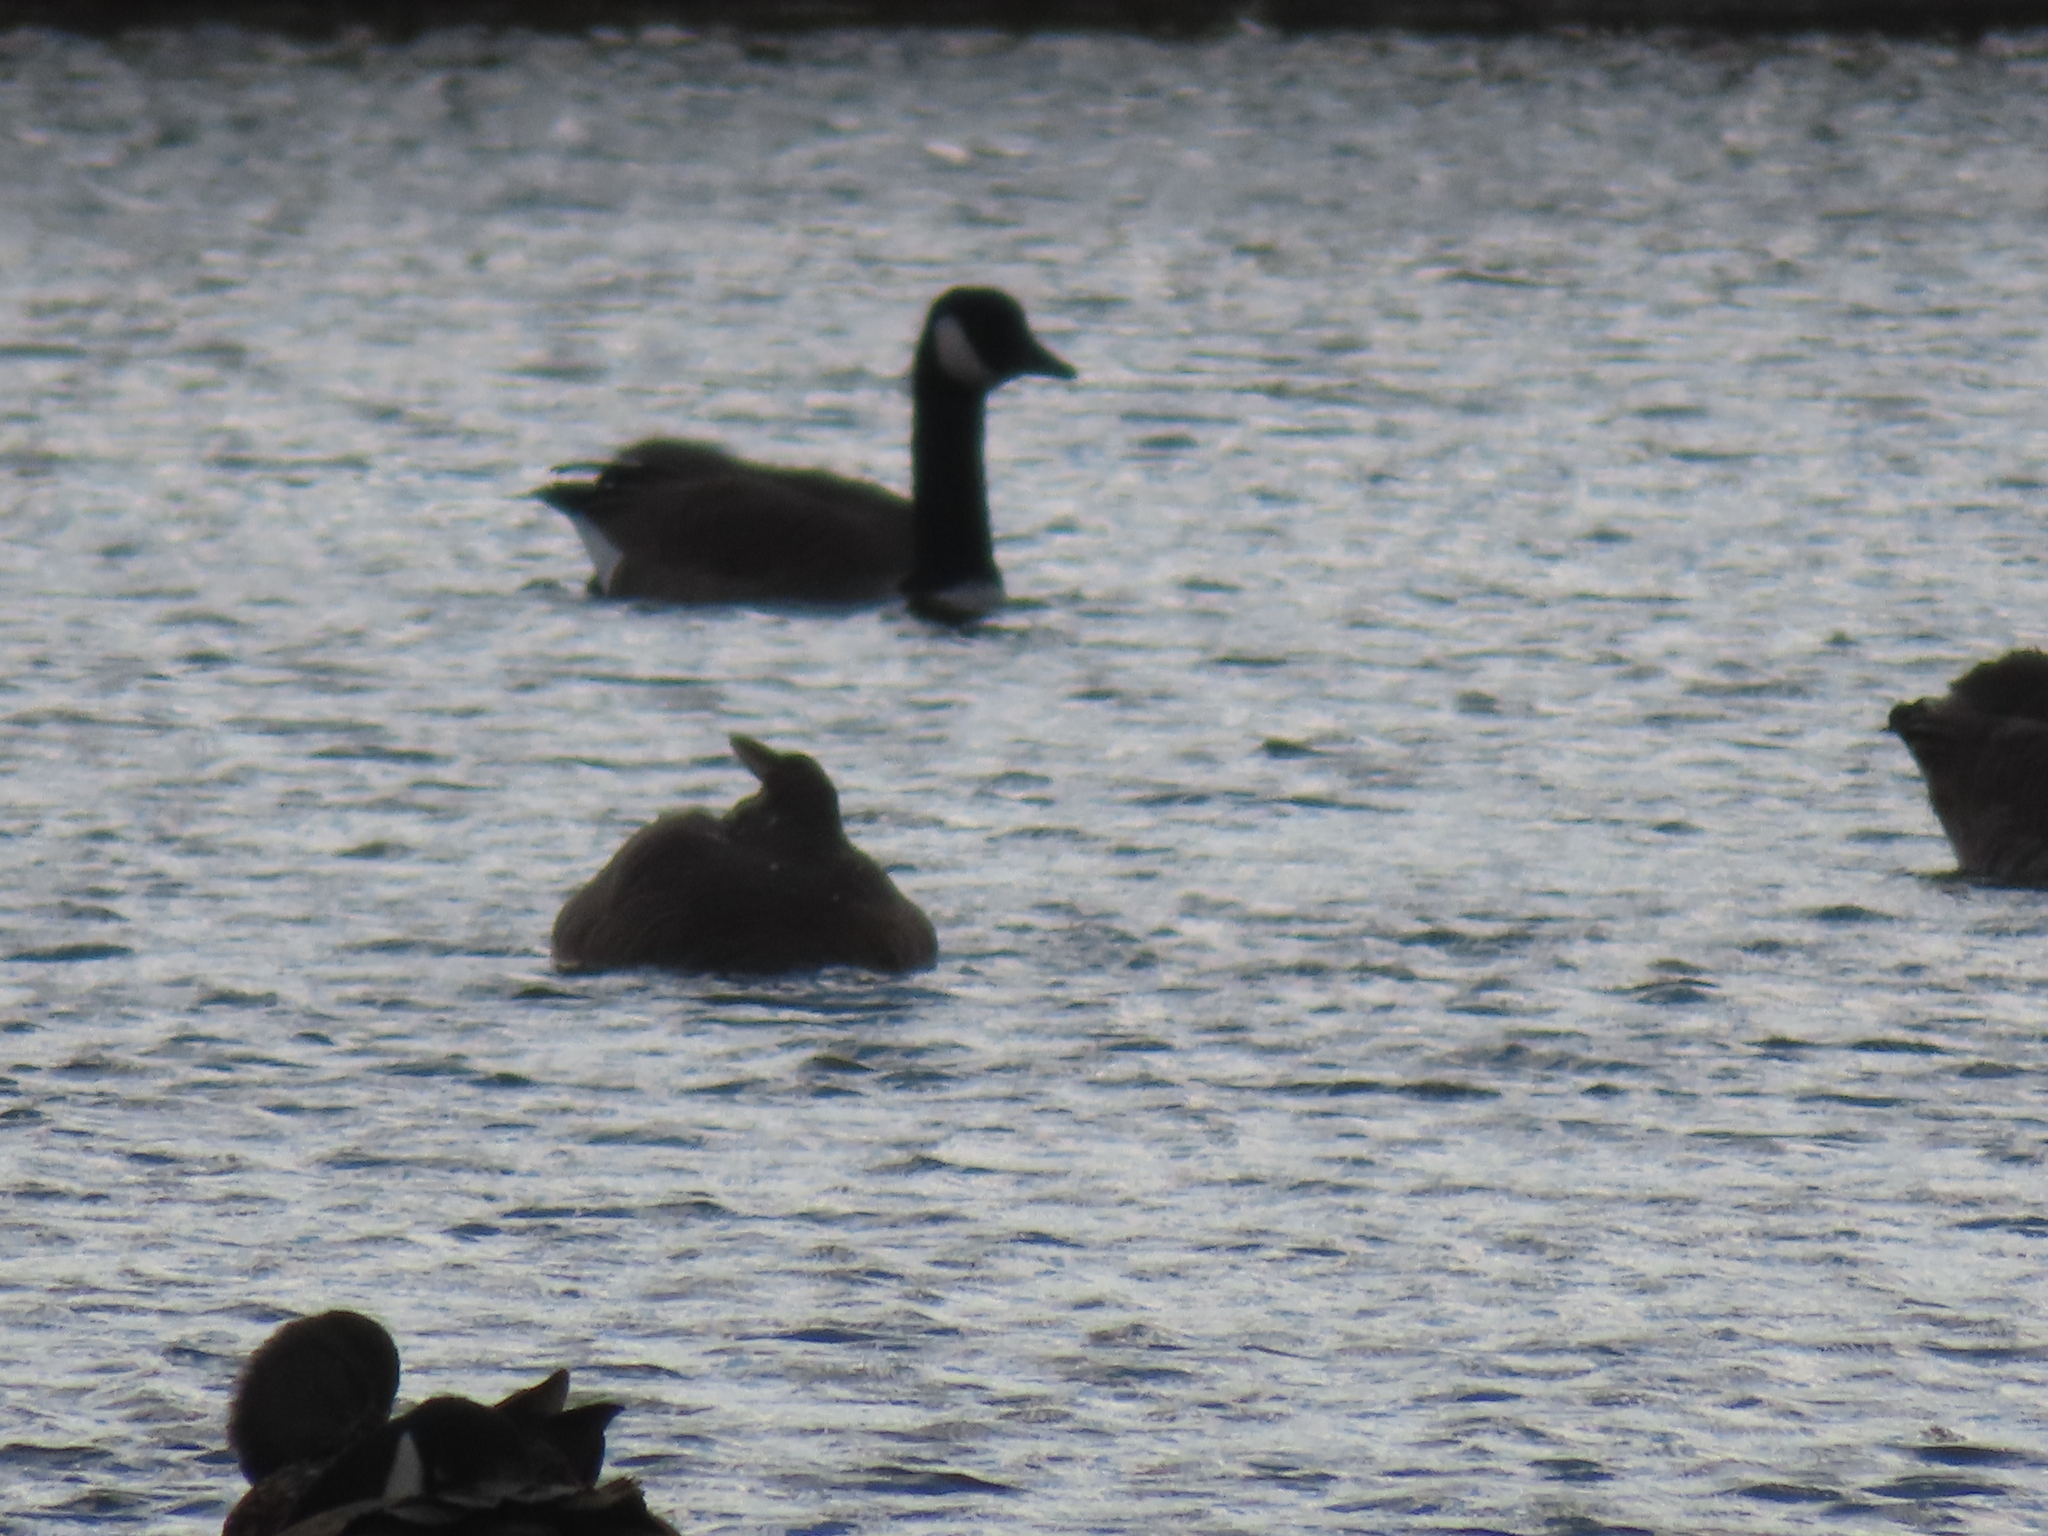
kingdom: Animalia
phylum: Chordata
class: Aves
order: Anseriformes
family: Anatidae
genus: Branta
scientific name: Branta canadensis
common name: Canada goose
